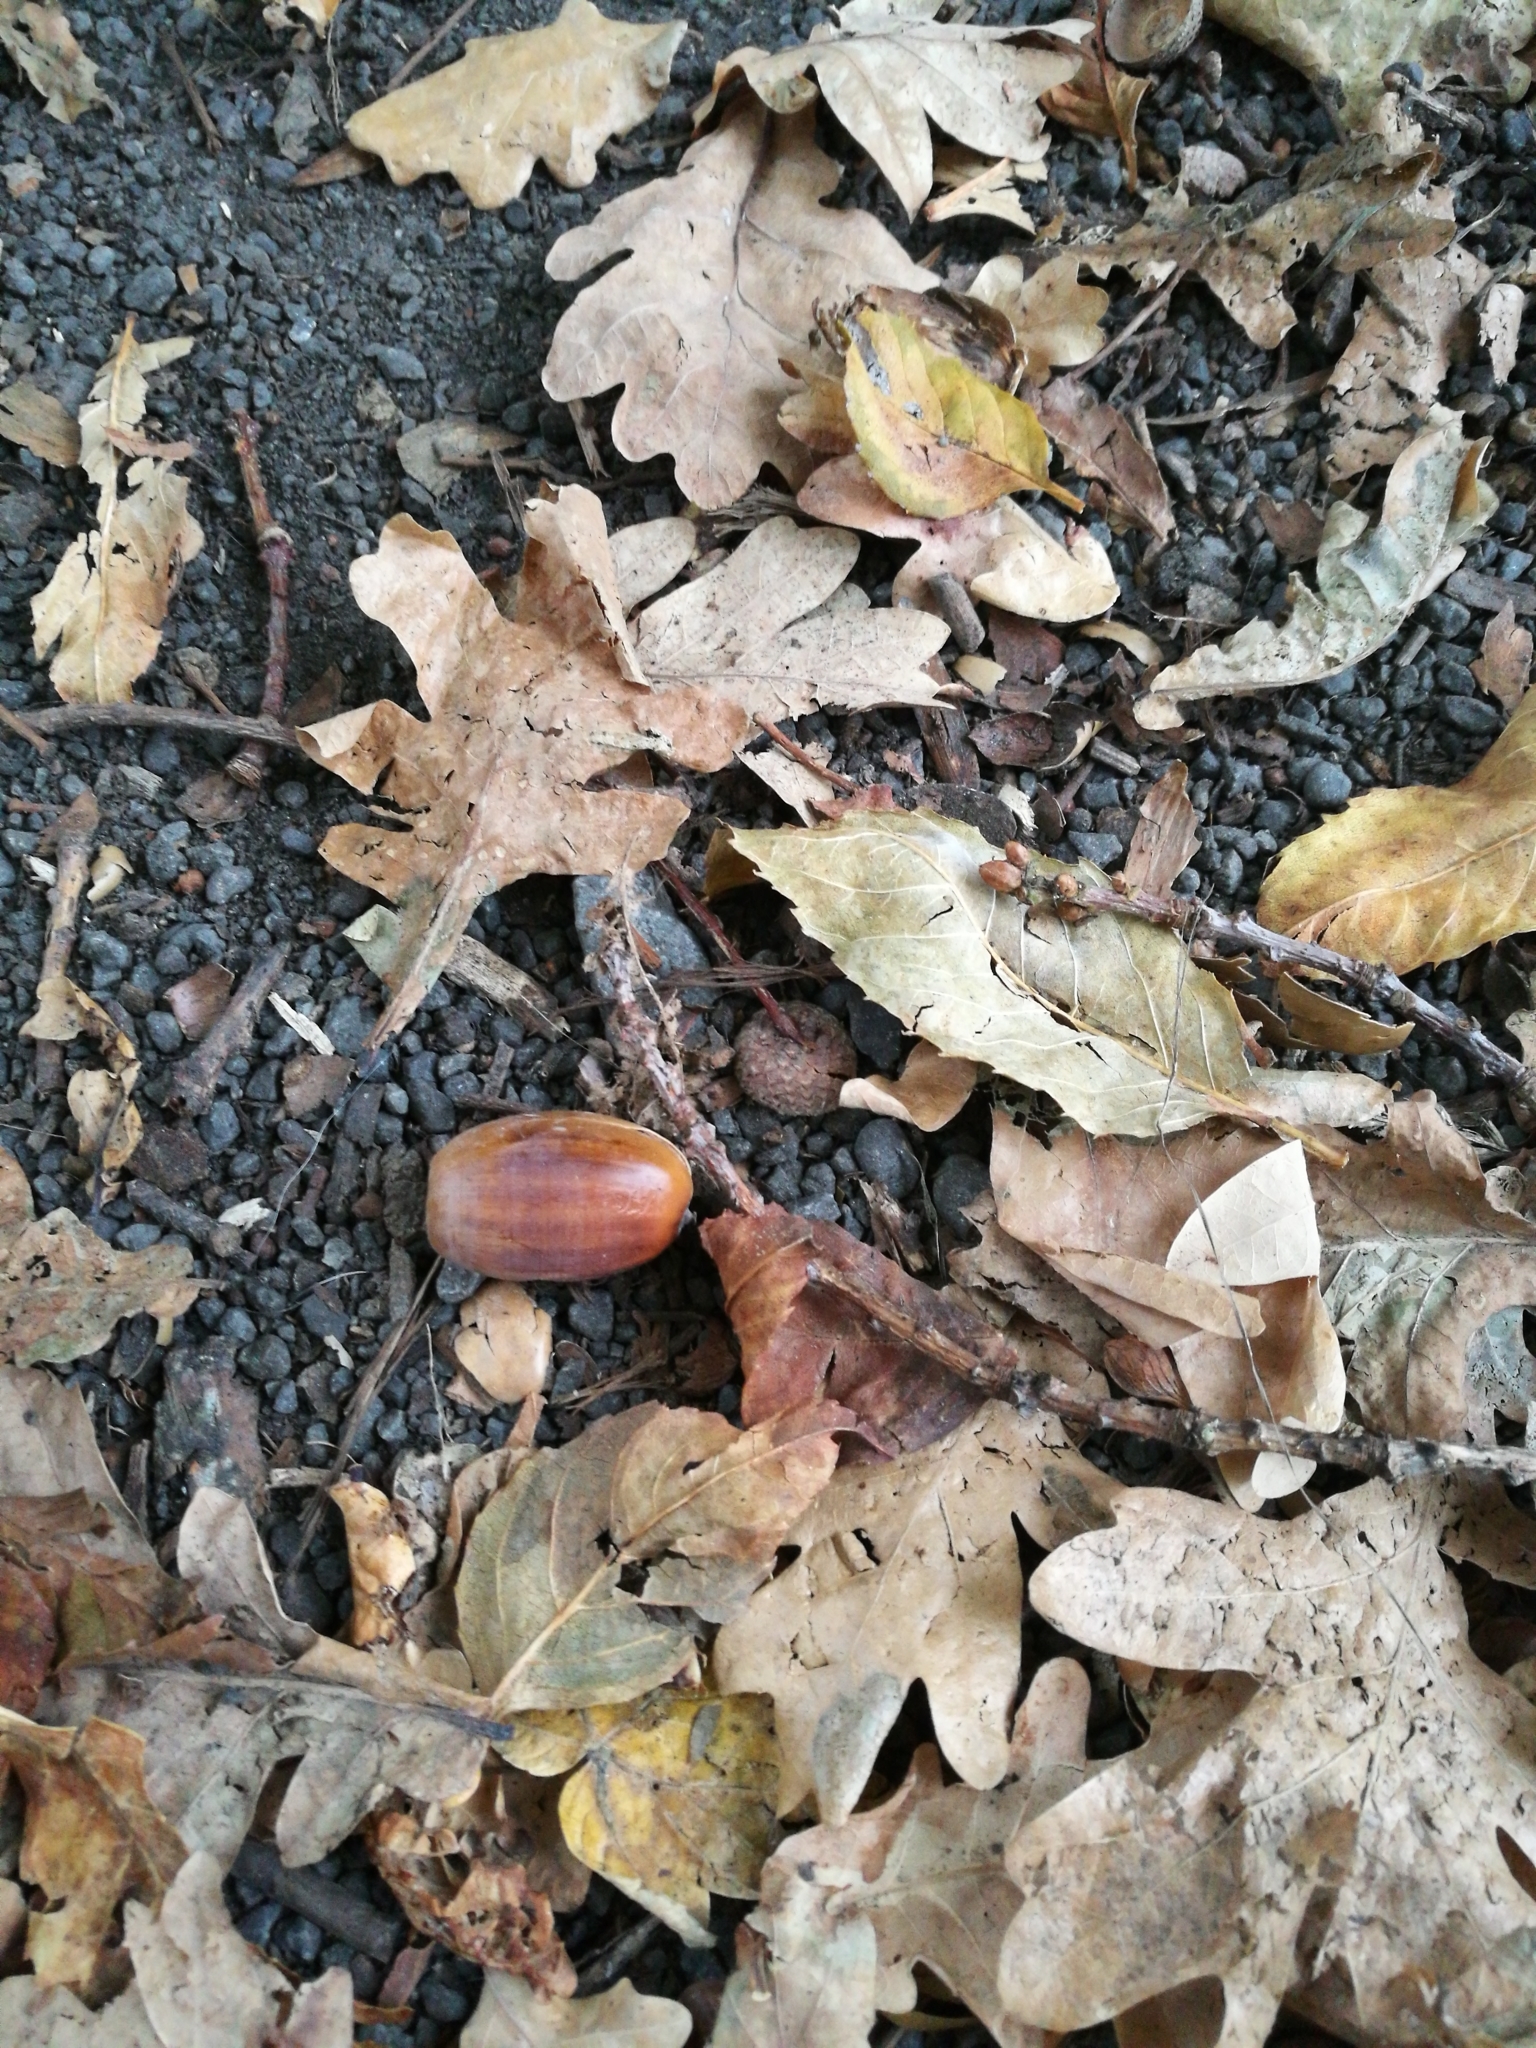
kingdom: Plantae
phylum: Tracheophyta
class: Magnoliopsida
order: Fagales
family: Fagaceae
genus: Quercus
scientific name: Quercus robur
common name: Pedunculate oak
